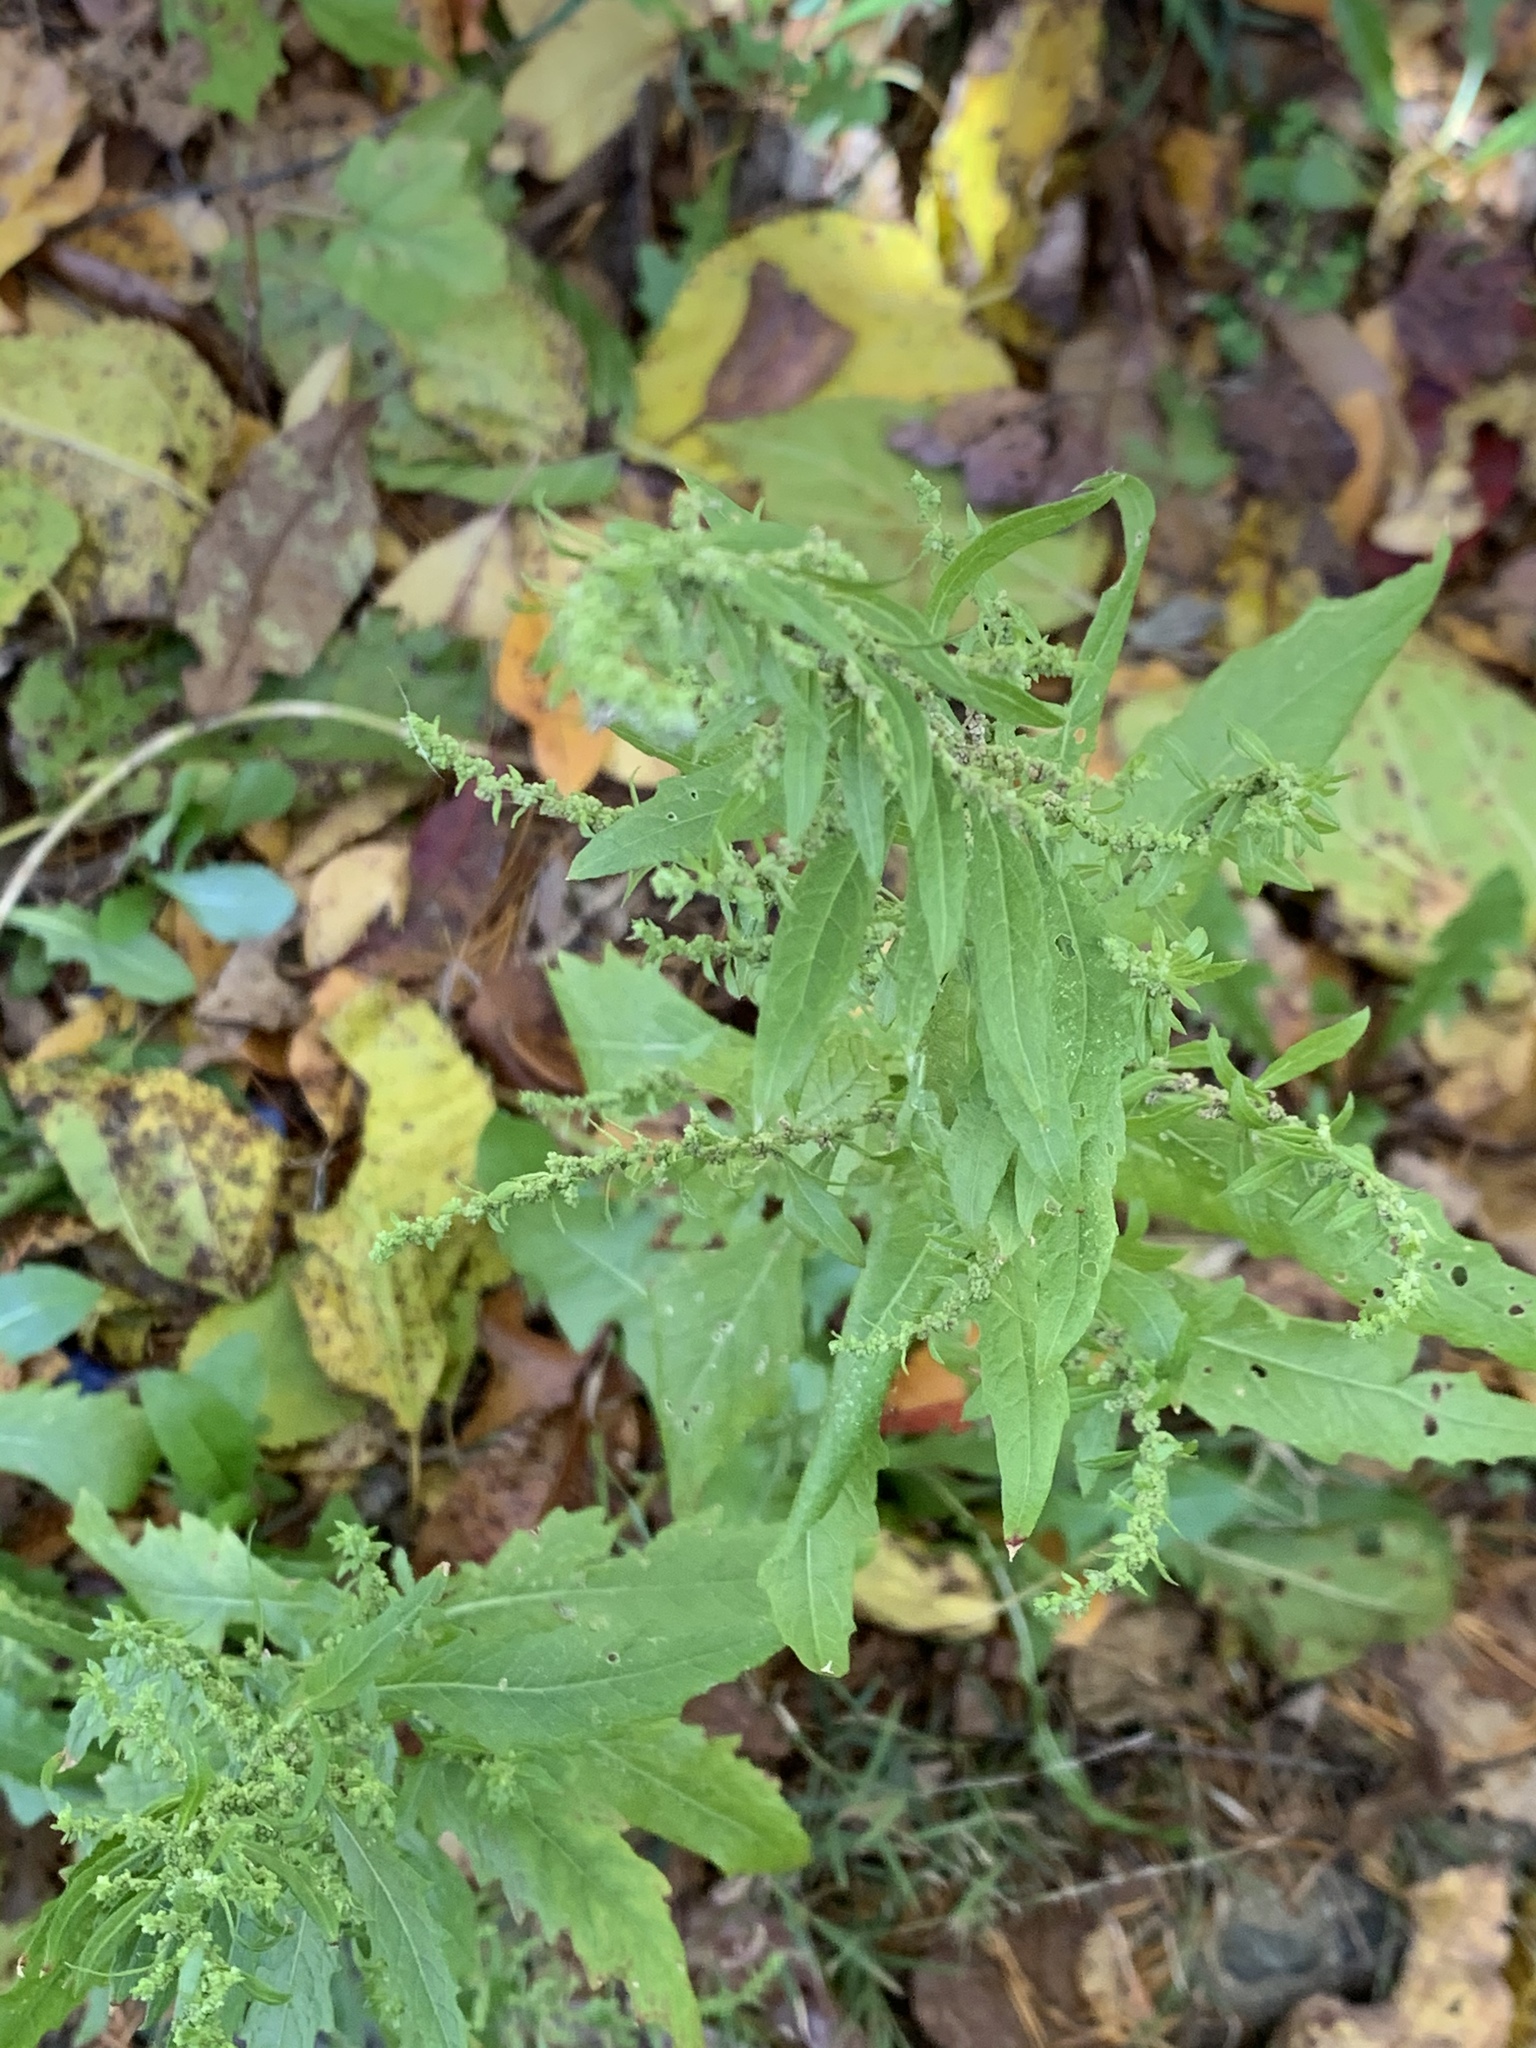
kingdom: Plantae
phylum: Tracheophyta
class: Magnoliopsida
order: Caryophyllales
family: Amaranthaceae
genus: Dysphania
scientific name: Dysphania ambrosioides
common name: Wormseed
